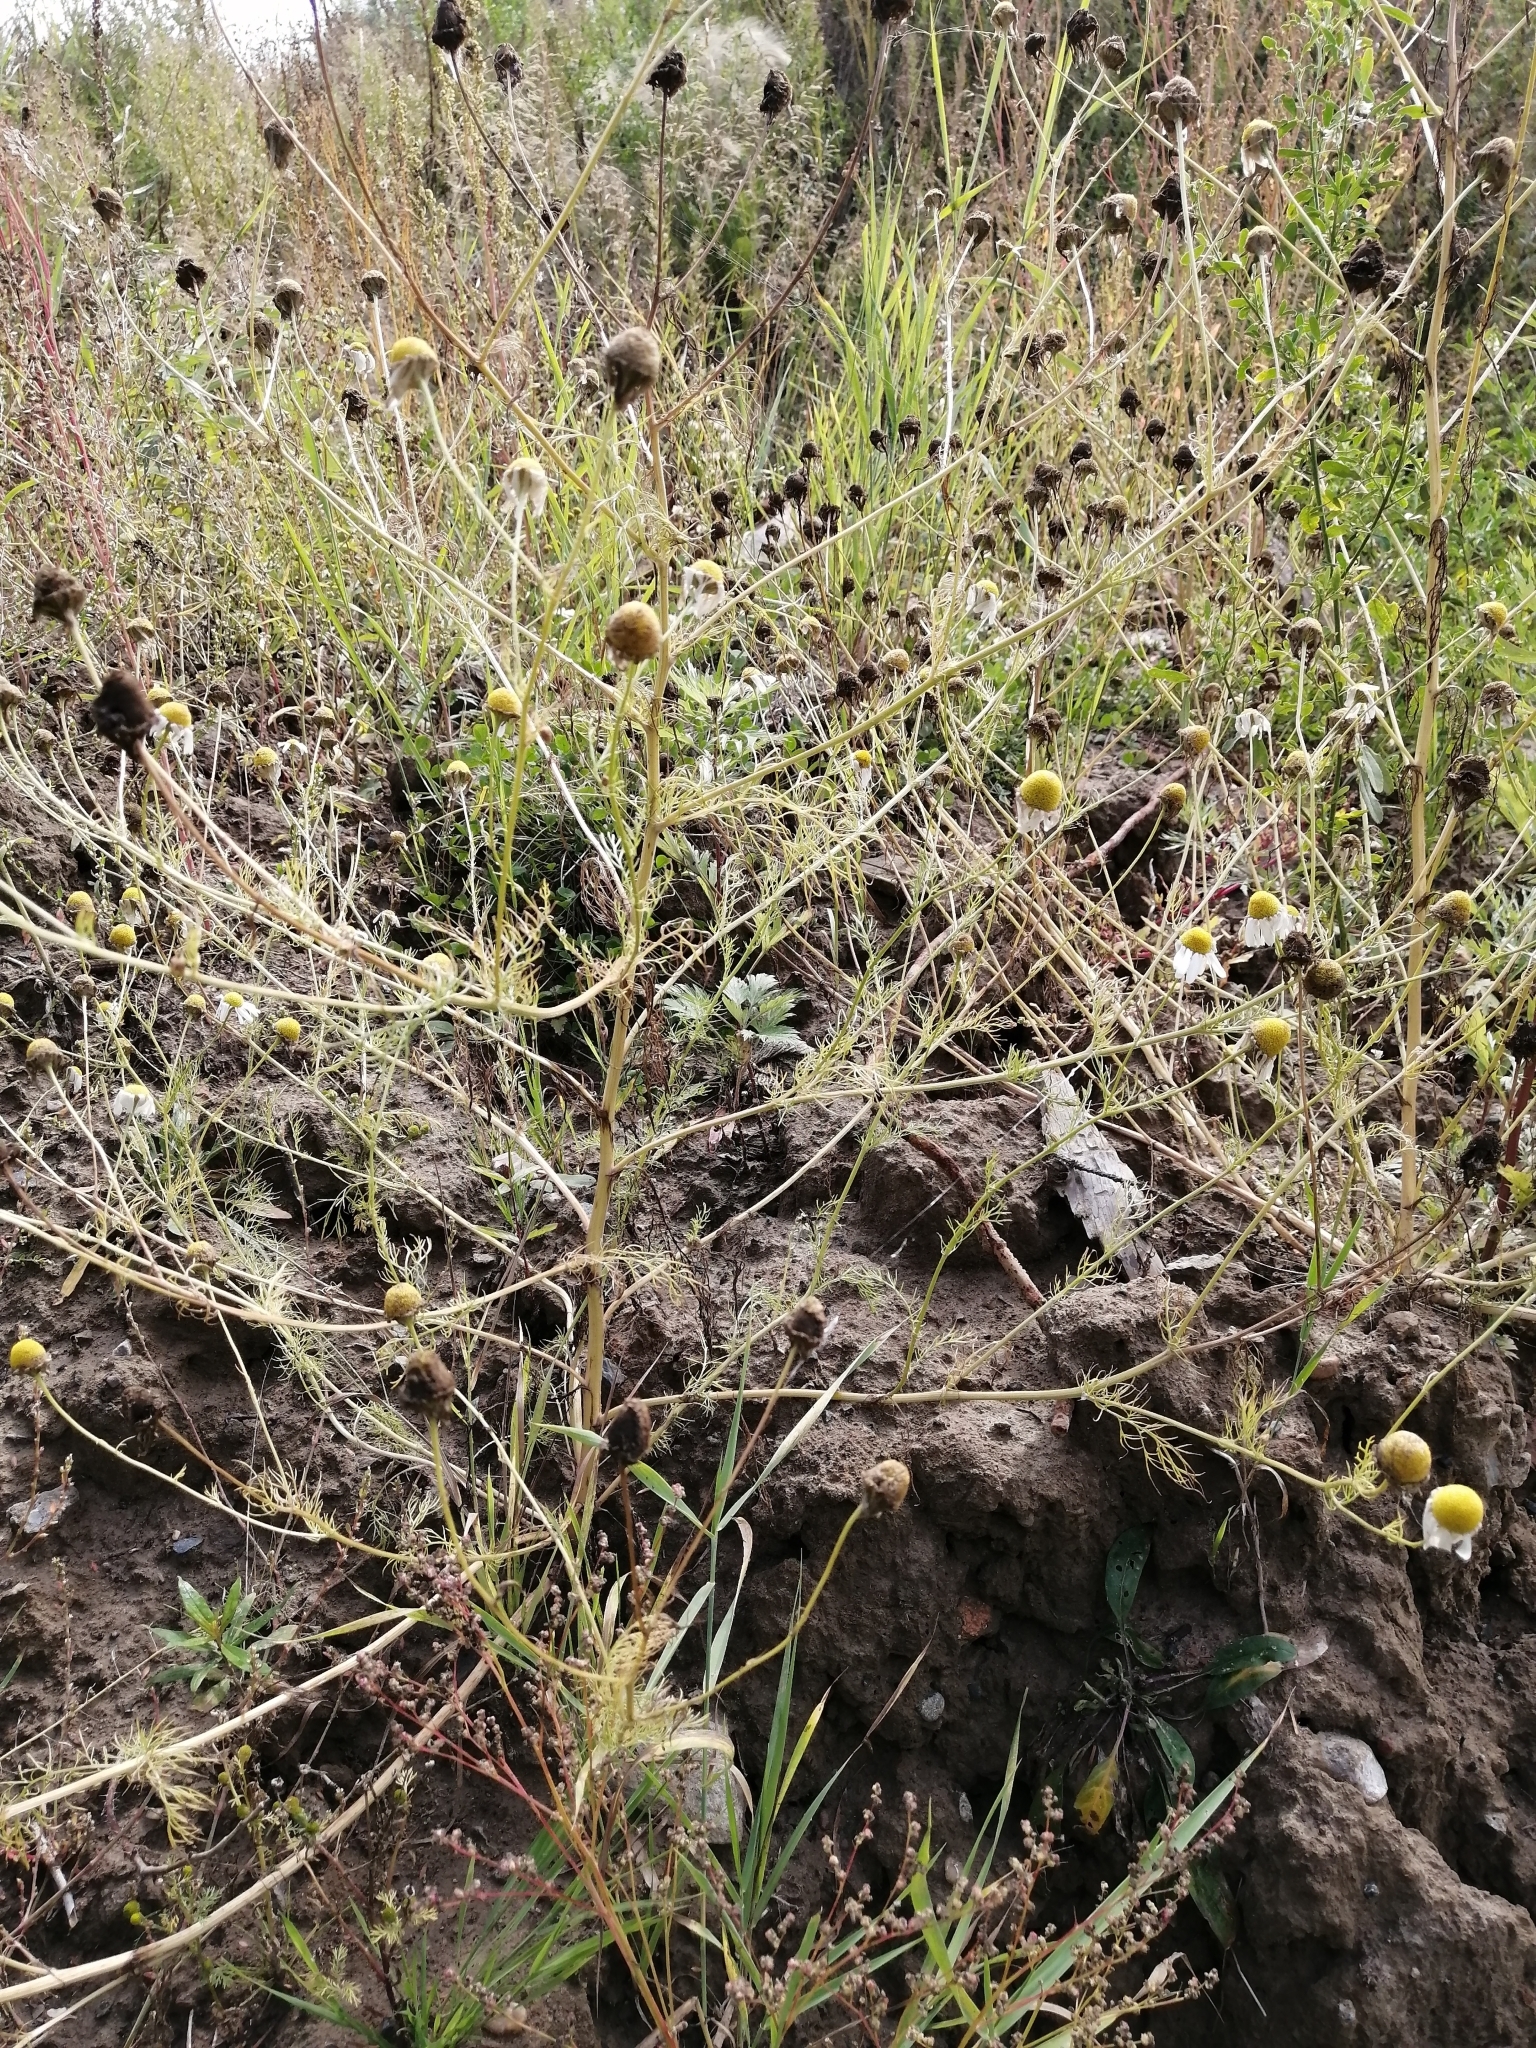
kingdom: Plantae
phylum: Tracheophyta
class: Magnoliopsida
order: Asterales
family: Asteraceae
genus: Tripleurospermum
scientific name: Tripleurospermum inodorum
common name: Scentless mayweed
